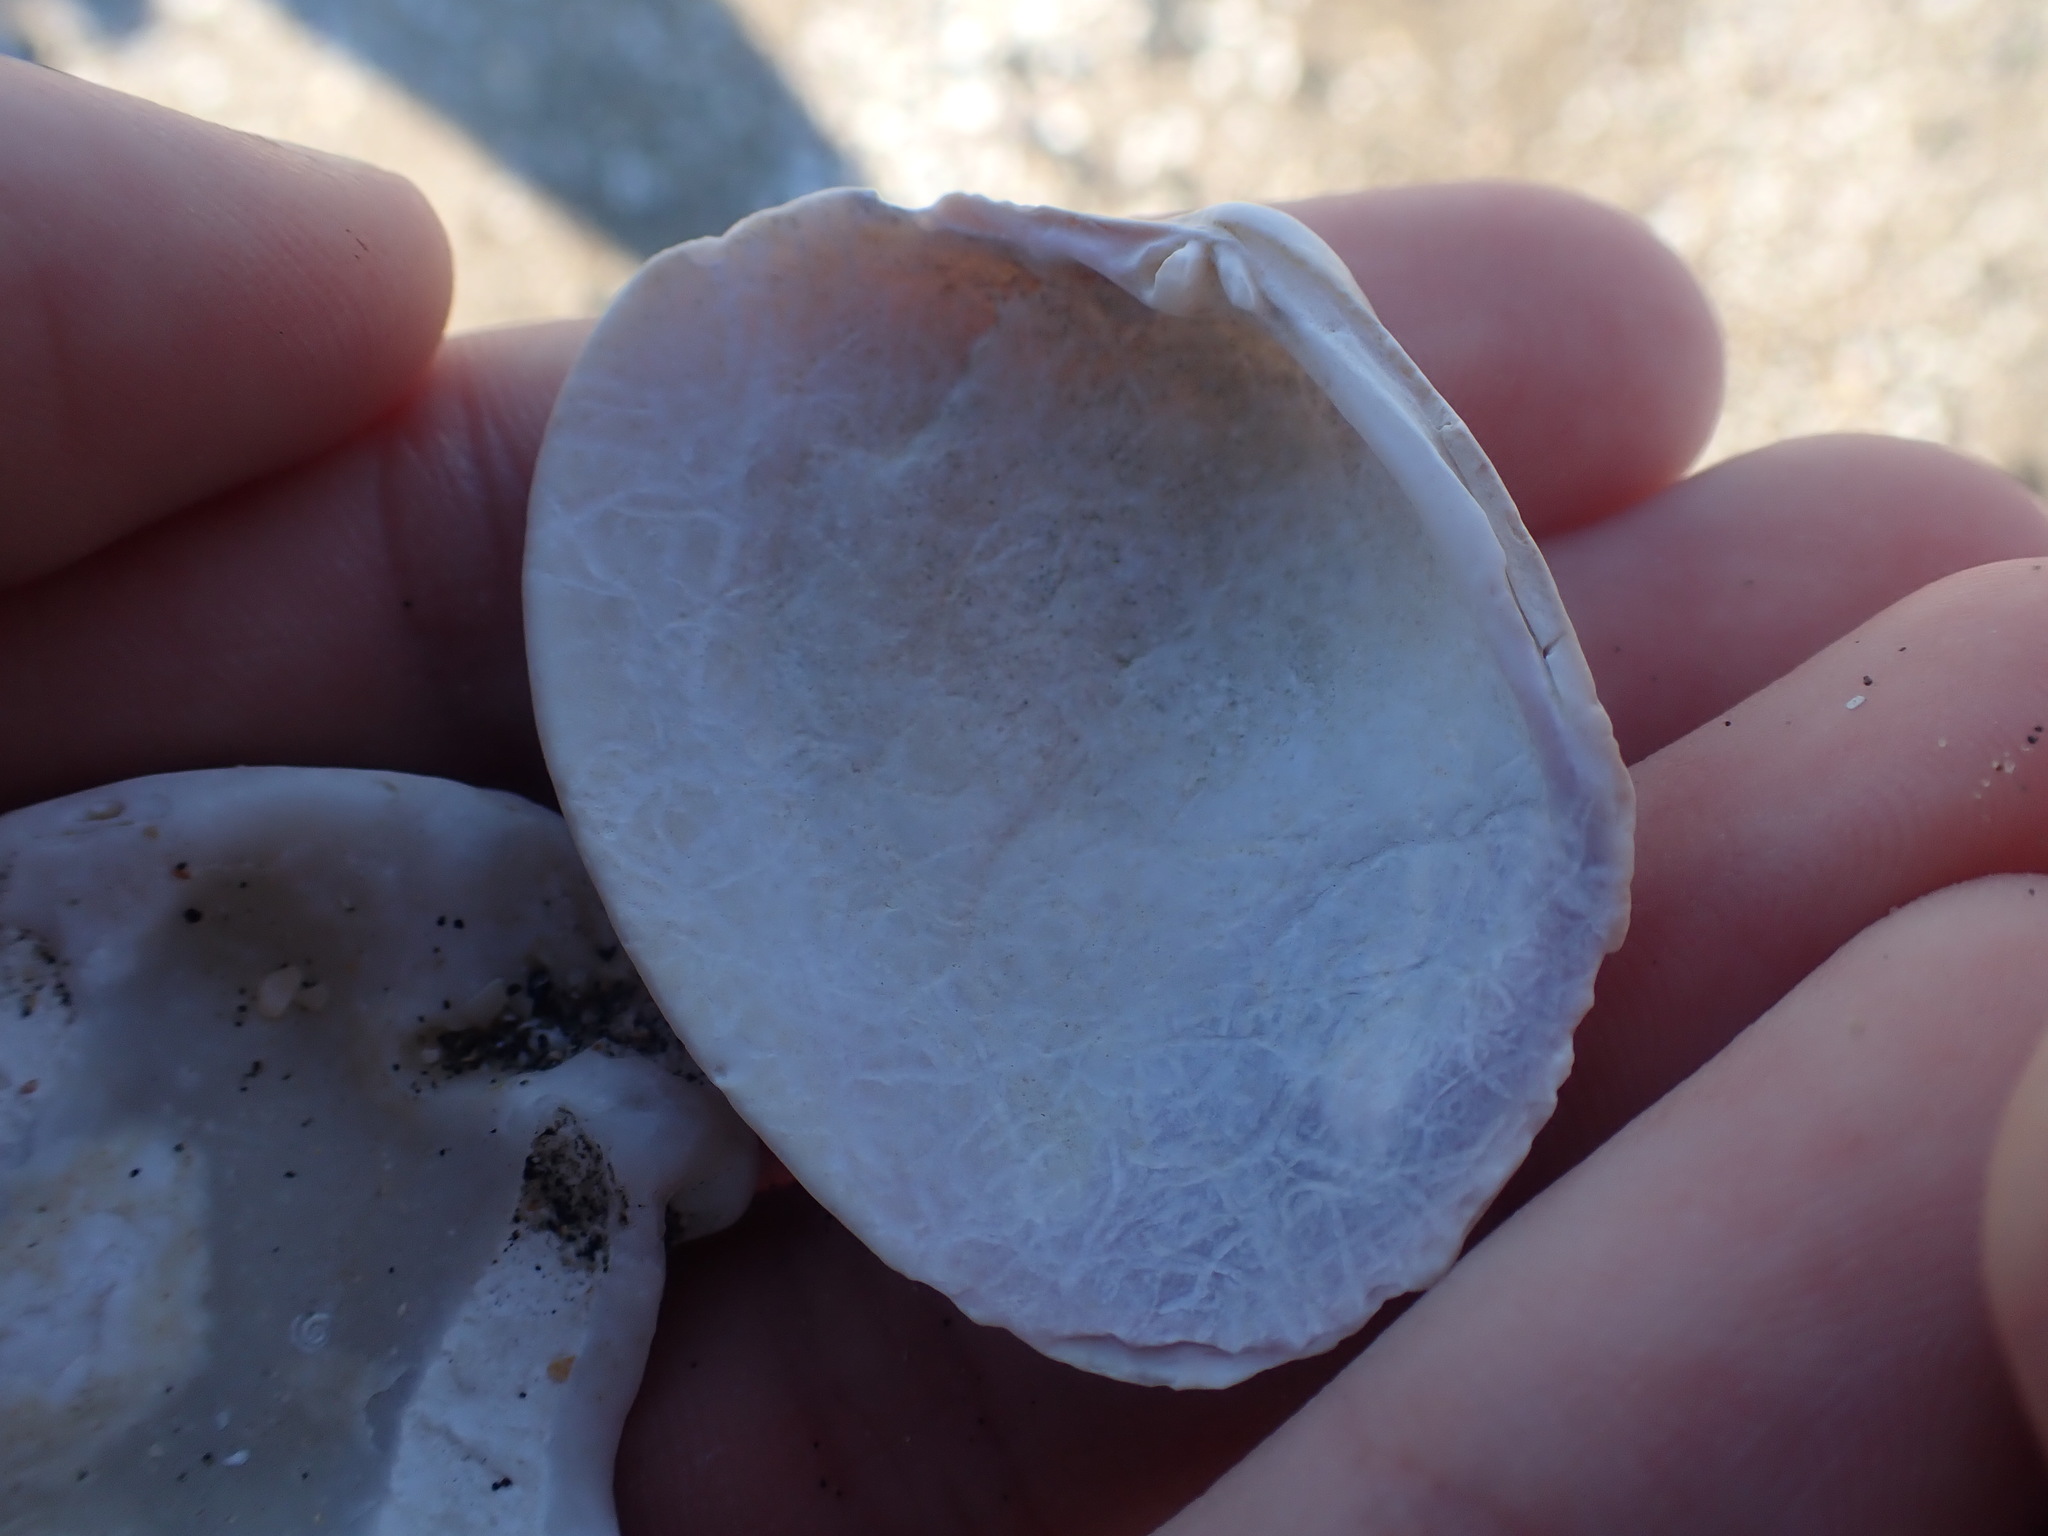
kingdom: Animalia
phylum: Mollusca
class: Bivalvia
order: Venerida
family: Veneridae
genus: Venerupis
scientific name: Venerupis largillierti
